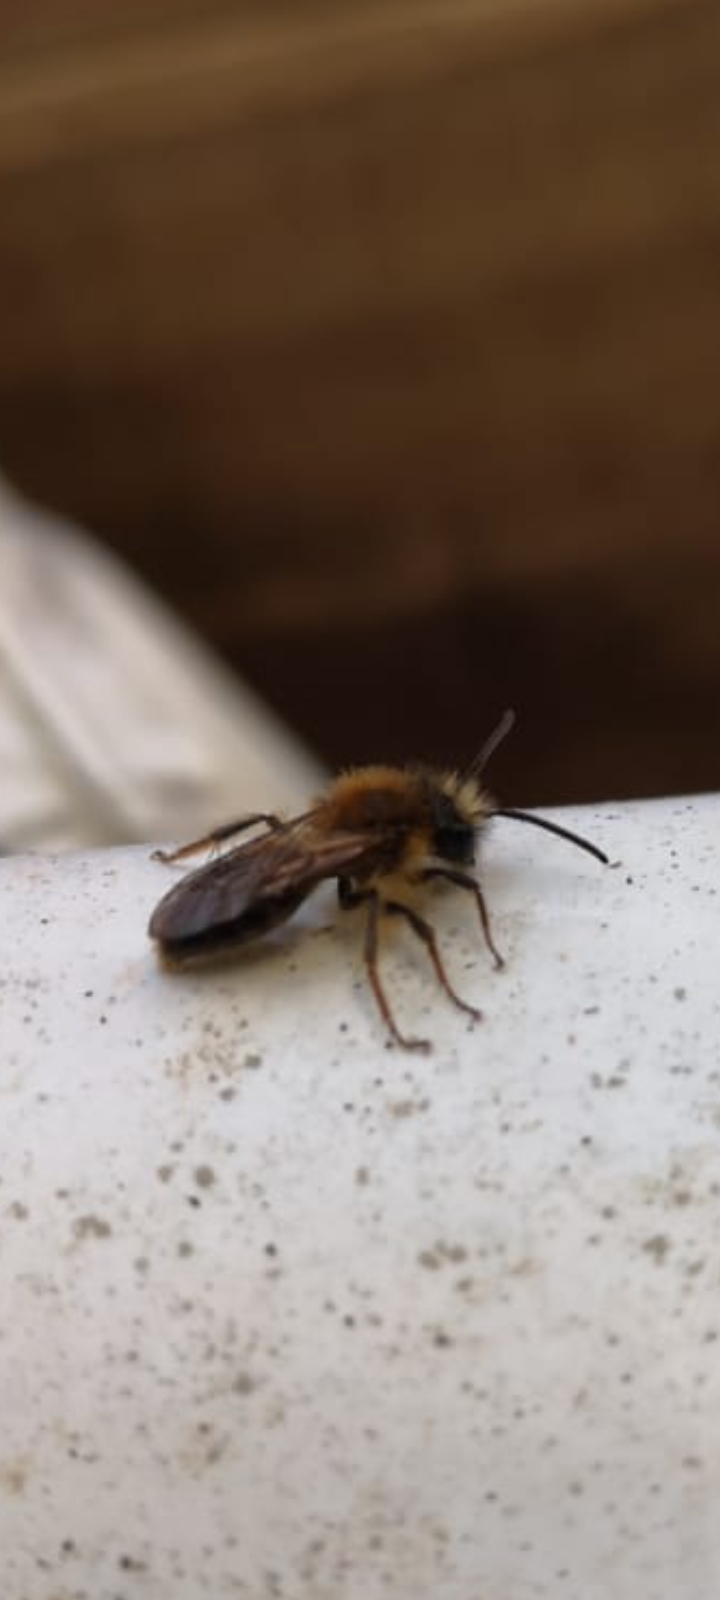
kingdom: Animalia
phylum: Arthropoda
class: Insecta
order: Hymenoptera
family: Andrenidae
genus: Andrena
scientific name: Andrena haemorrhoa
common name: Early mining bee
